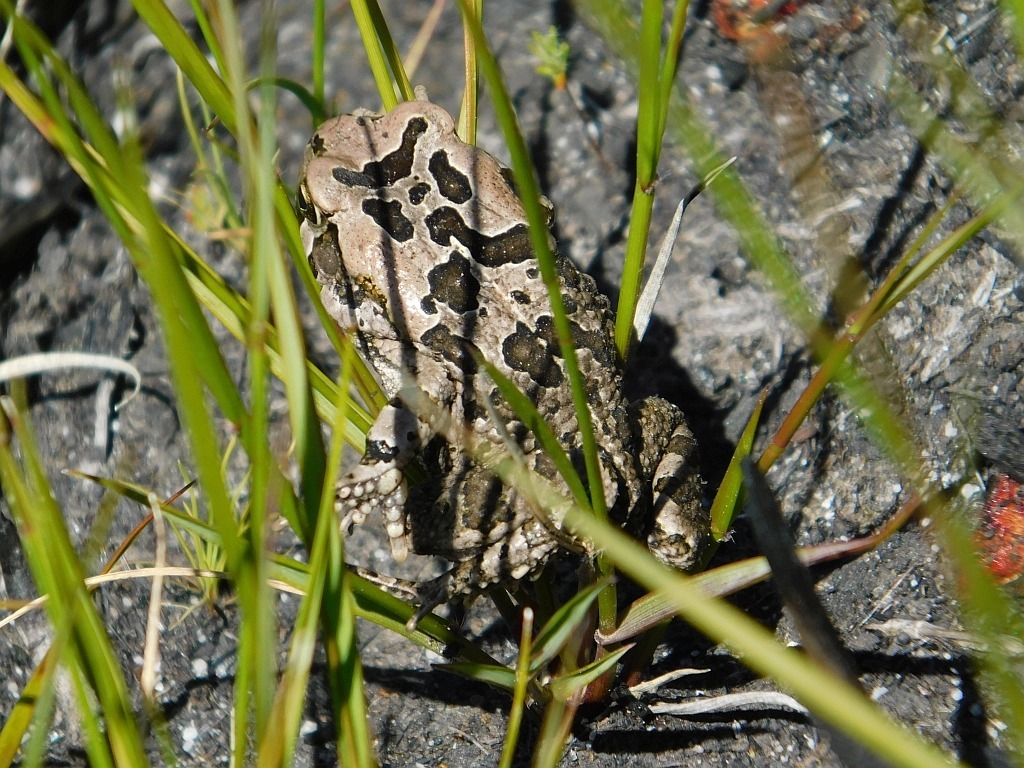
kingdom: Animalia
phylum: Chordata
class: Amphibia
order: Anura
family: Bufonidae
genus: Sclerophrys
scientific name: Sclerophrys capensis
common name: Ranger’s toad
